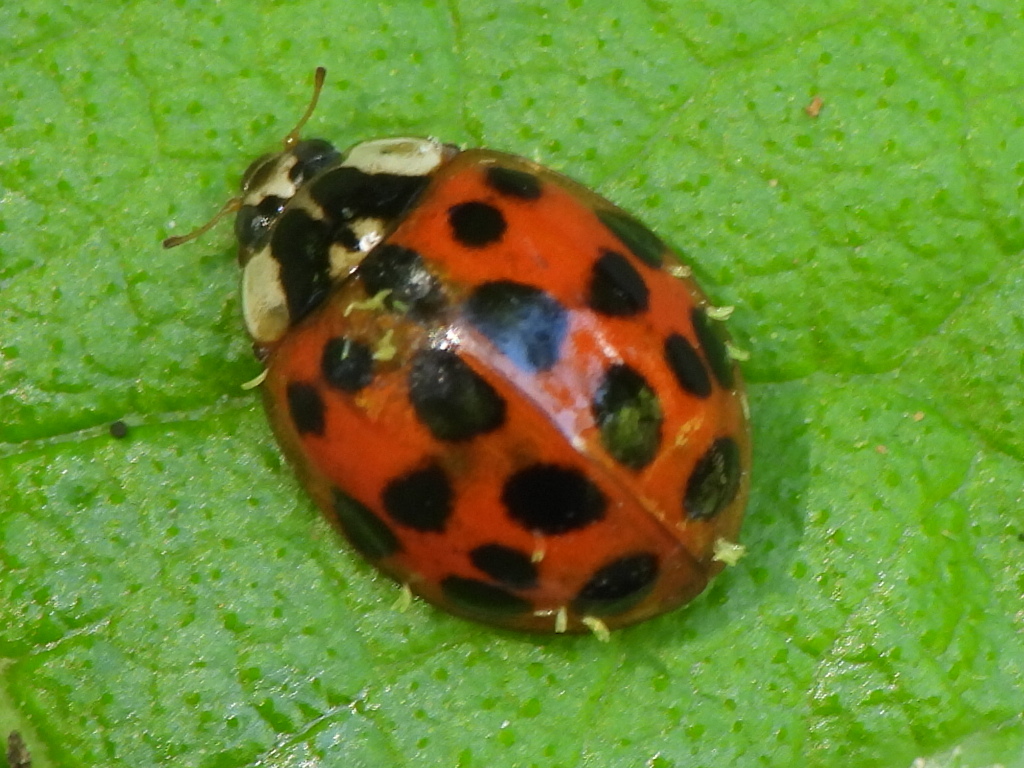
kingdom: Animalia
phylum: Arthropoda
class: Insecta
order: Coleoptera
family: Coccinellidae
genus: Harmonia
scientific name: Harmonia axyridis
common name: Harlequin ladybird
